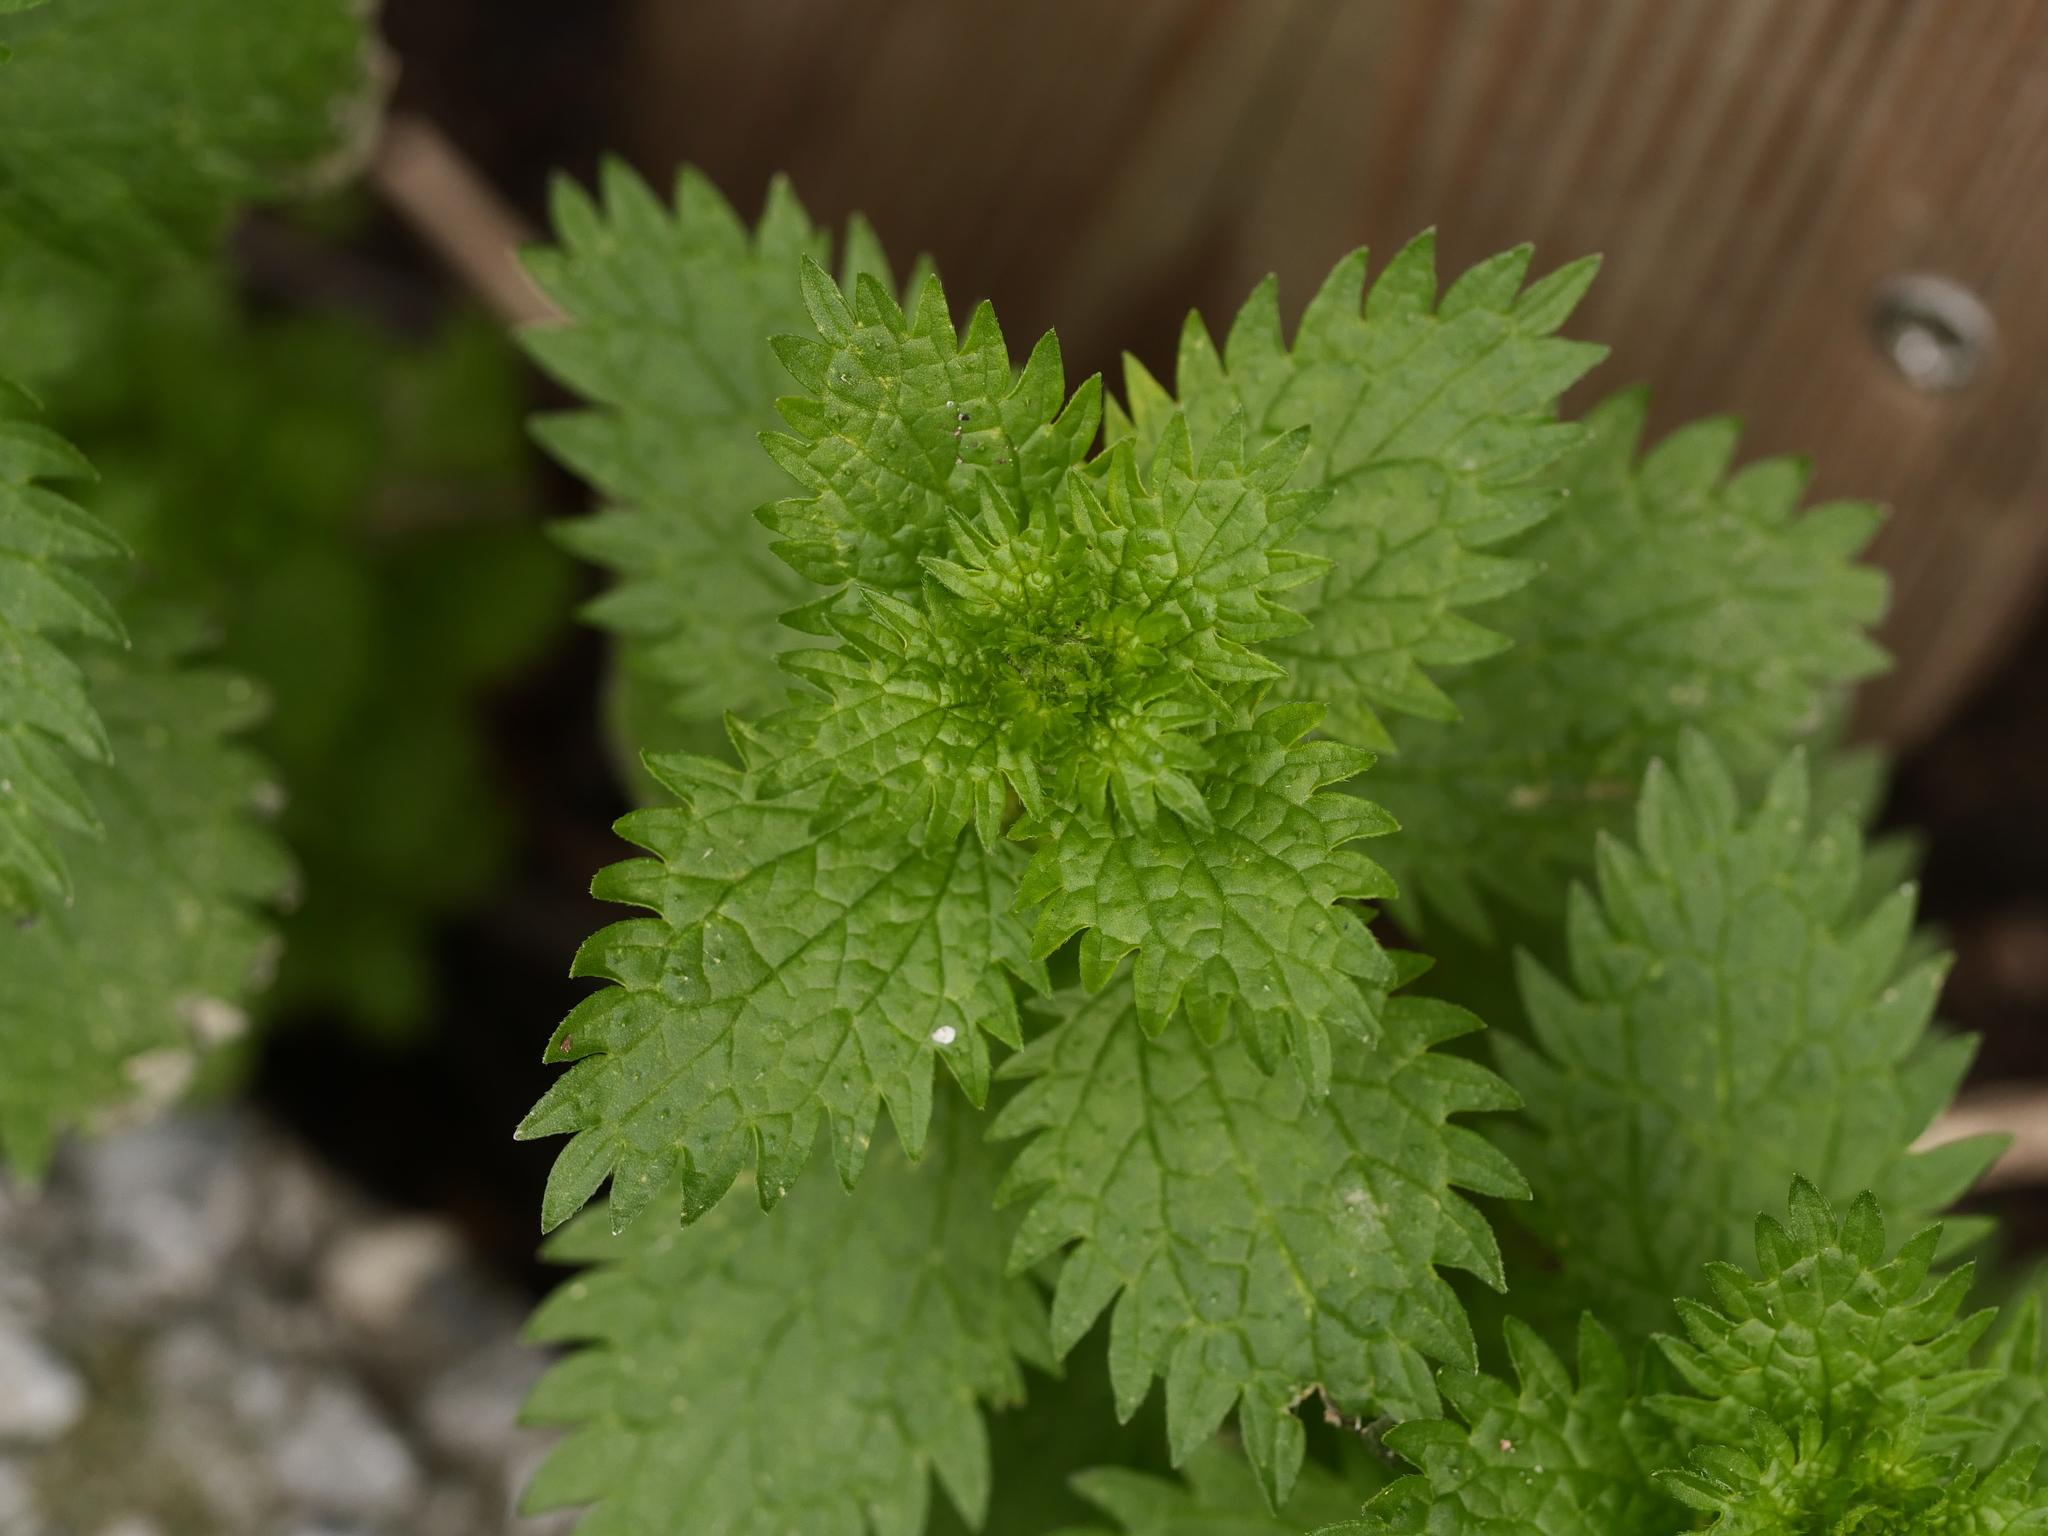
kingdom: Plantae
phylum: Tracheophyta
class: Magnoliopsida
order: Rosales
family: Urticaceae
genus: Urtica
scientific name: Urtica urens
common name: Dwarf nettle
